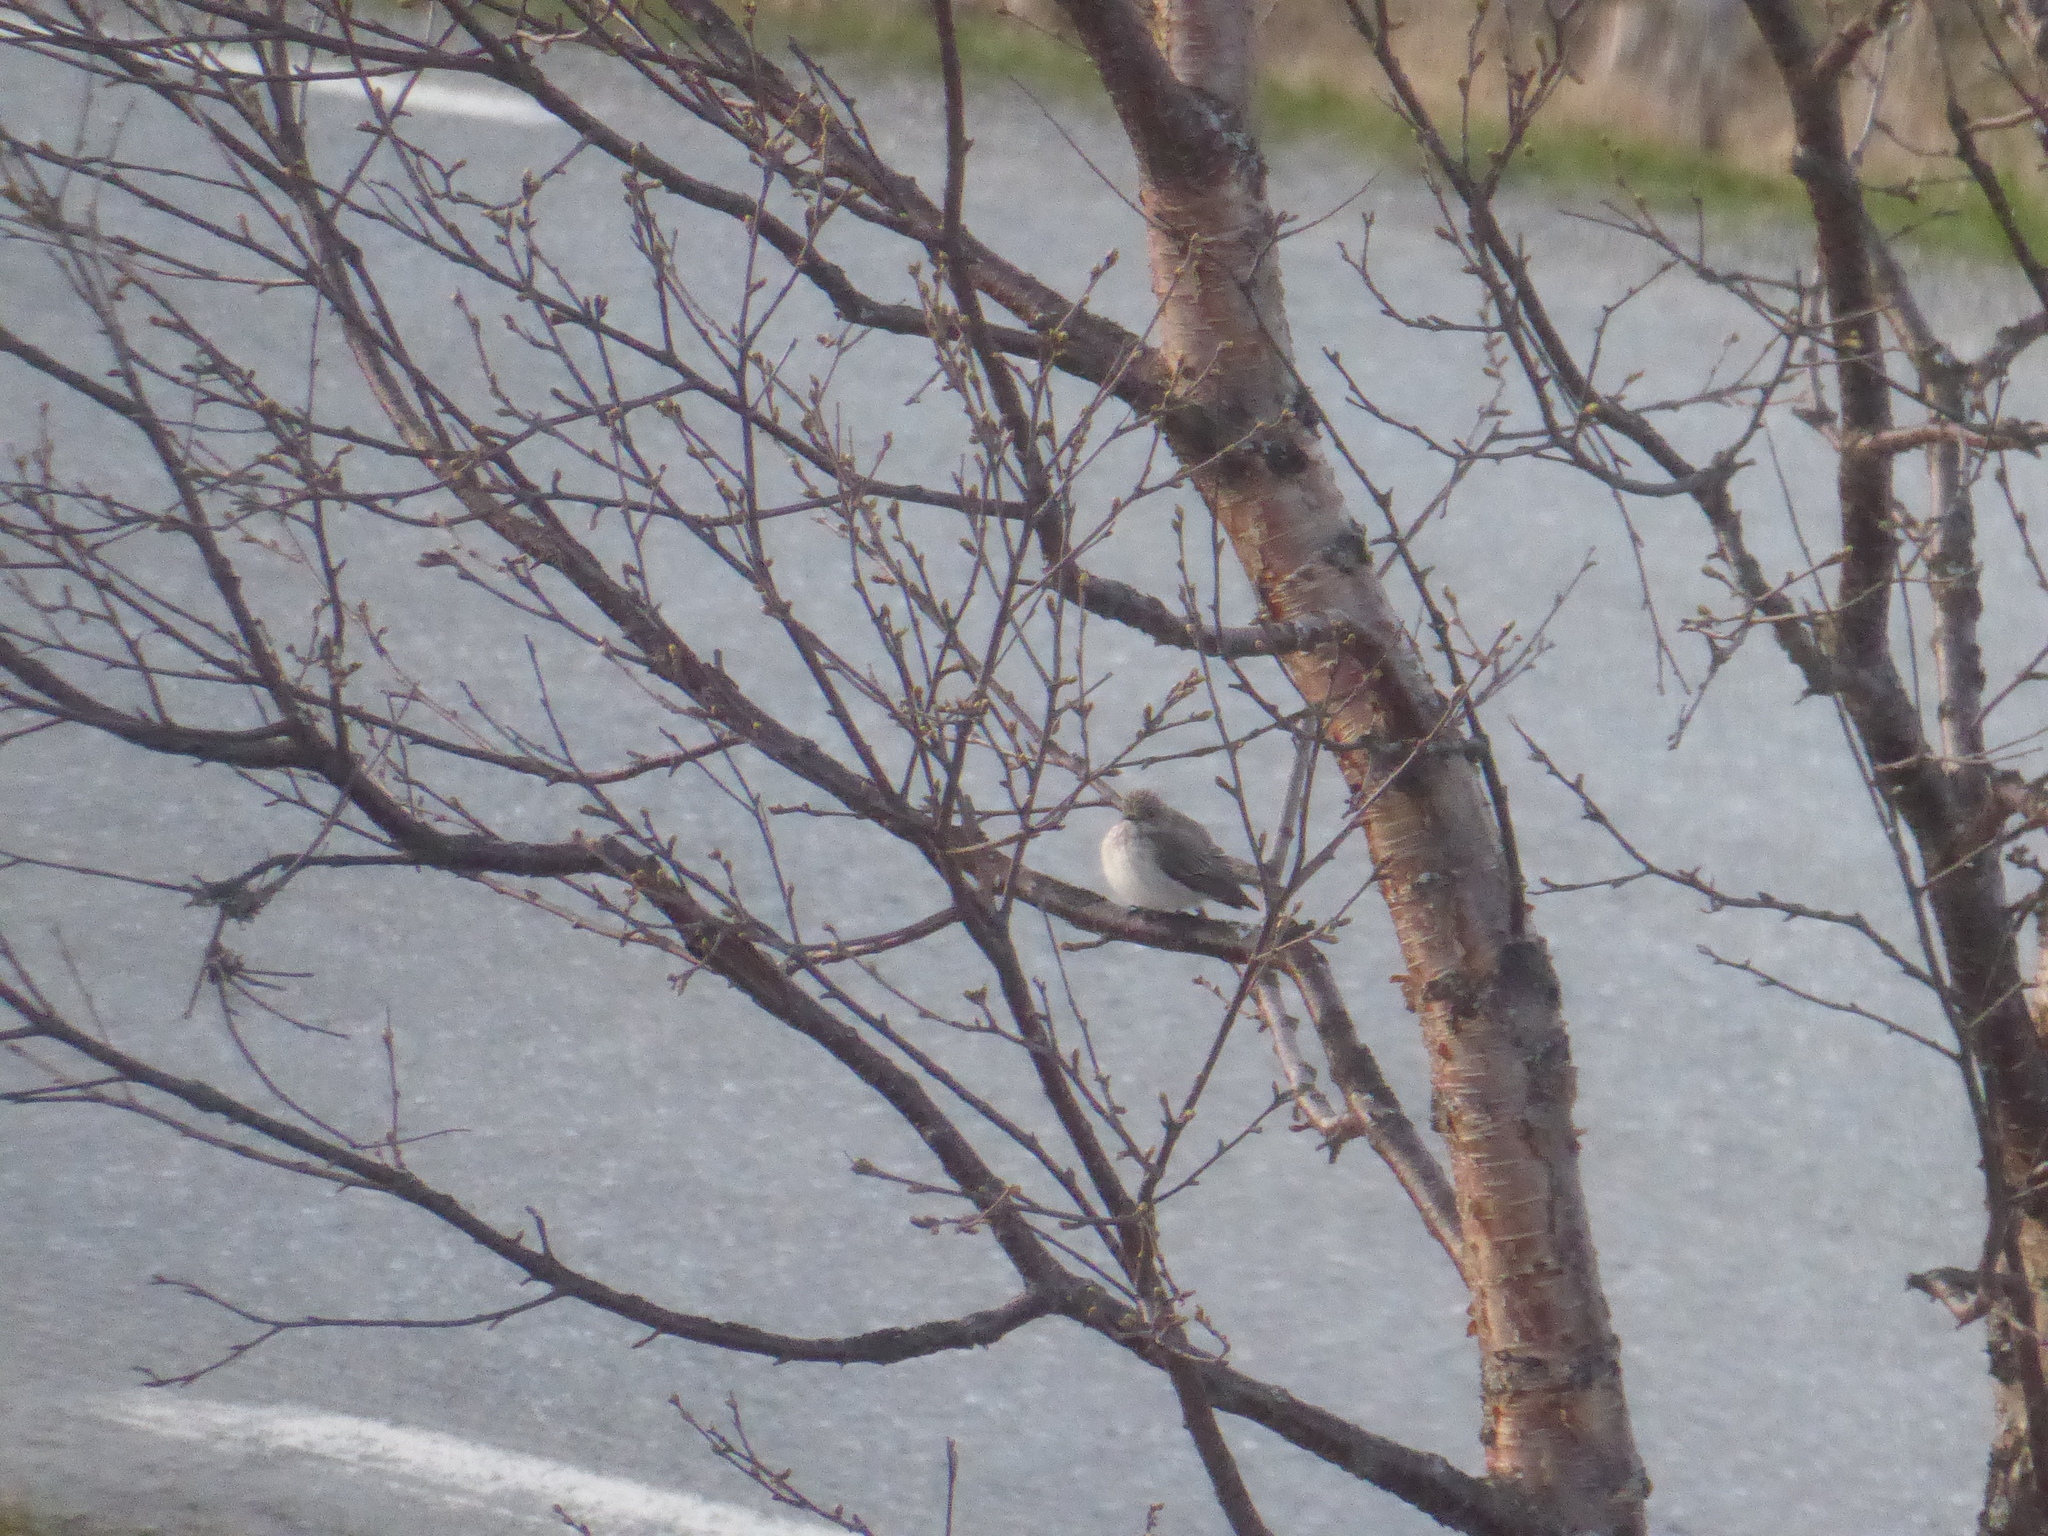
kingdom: Animalia
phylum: Chordata
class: Aves
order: Passeriformes
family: Muscicapidae
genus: Muscicapa
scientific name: Muscicapa striata
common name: Spotted flycatcher
